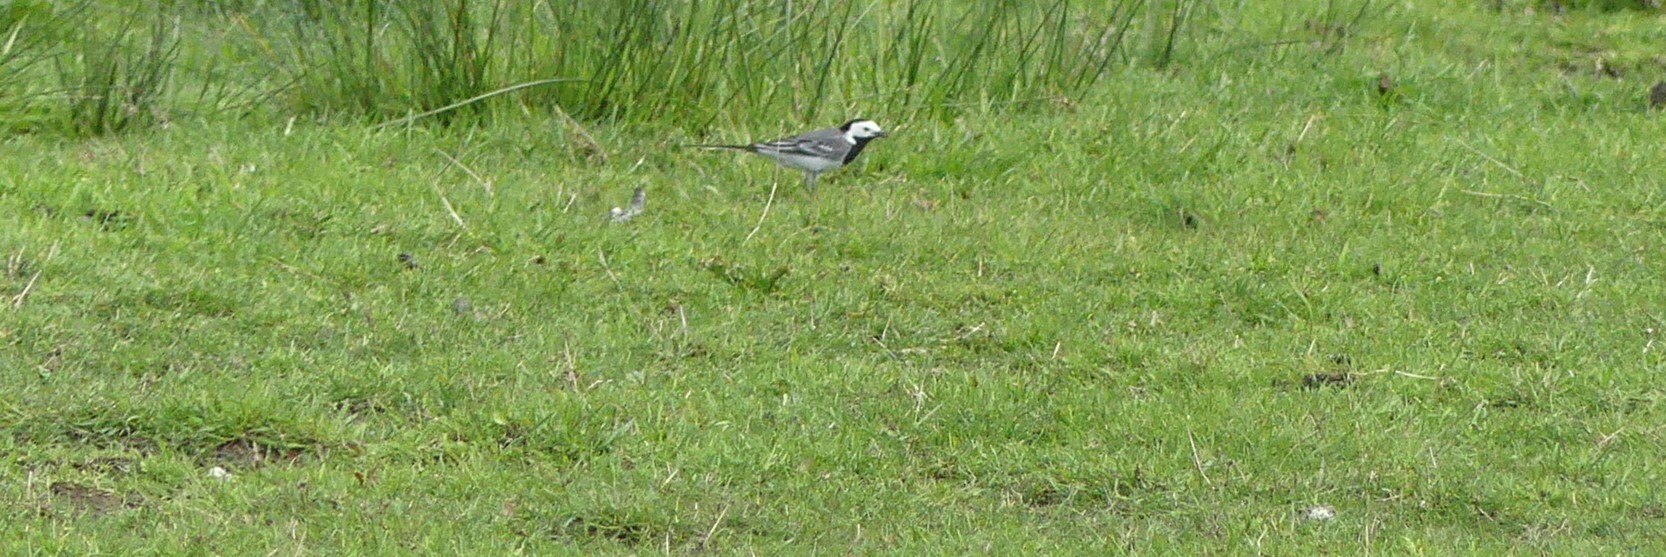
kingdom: Animalia
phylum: Chordata
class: Aves
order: Passeriformes
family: Motacillidae
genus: Motacilla
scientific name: Motacilla alba
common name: White wagtail
